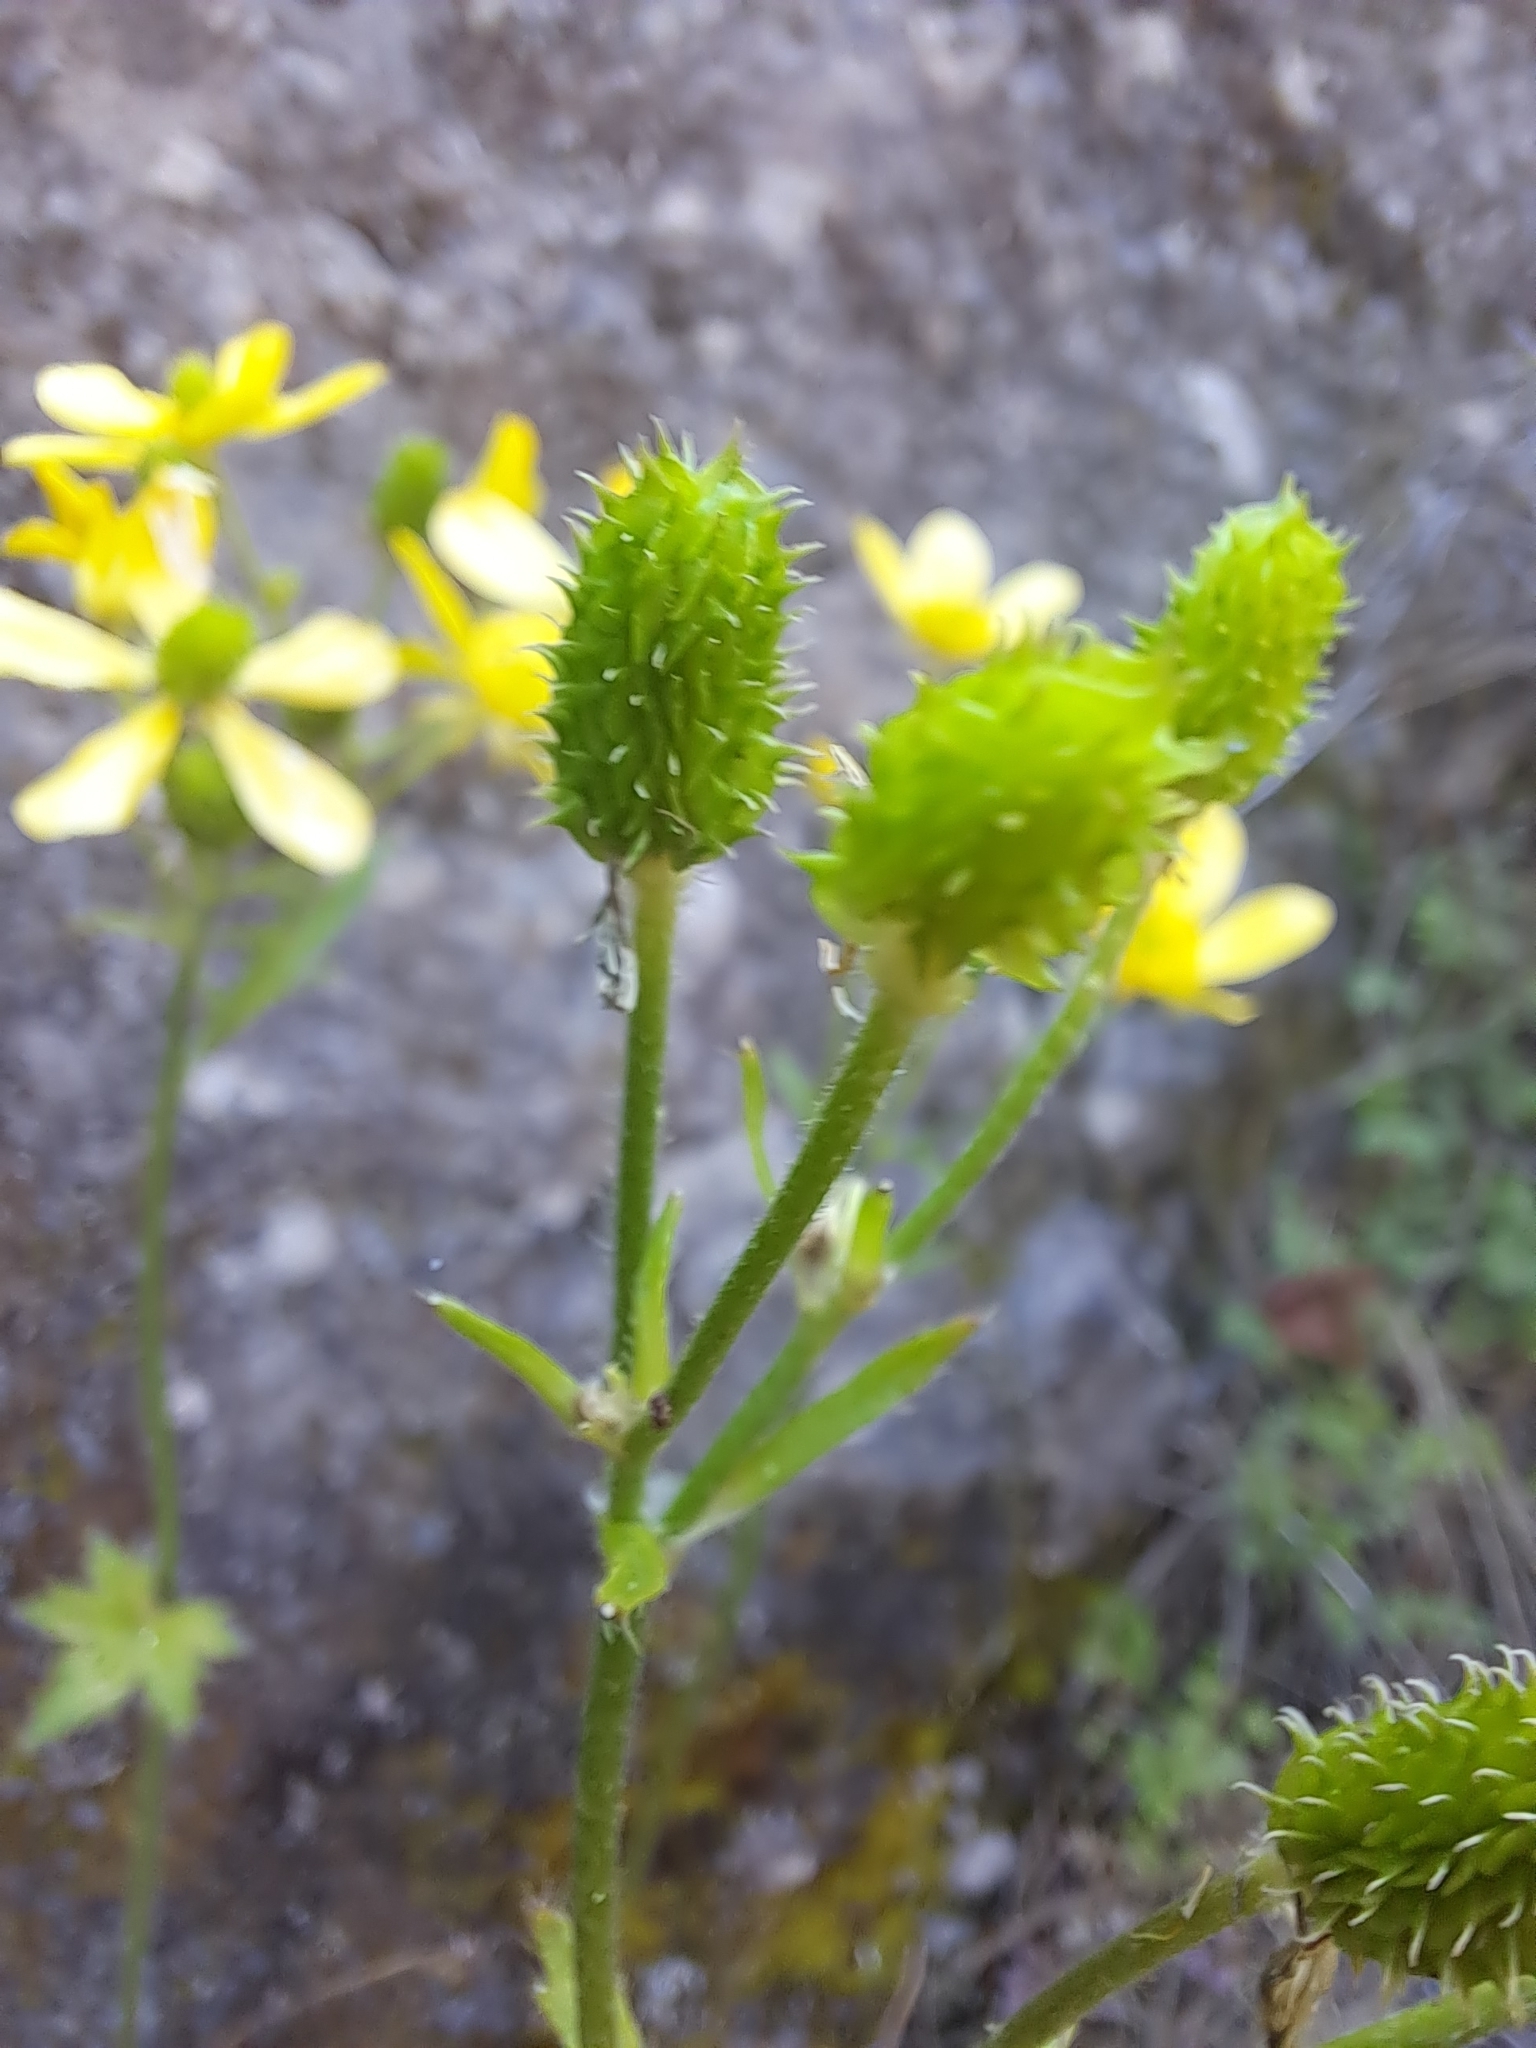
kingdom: Plantae
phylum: Tracheophyta
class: Magnoliopsida
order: Ranunculales
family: Ranunculaceae
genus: Ranunculus
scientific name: Ranunculus cortusifolius
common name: Azores buttercup
